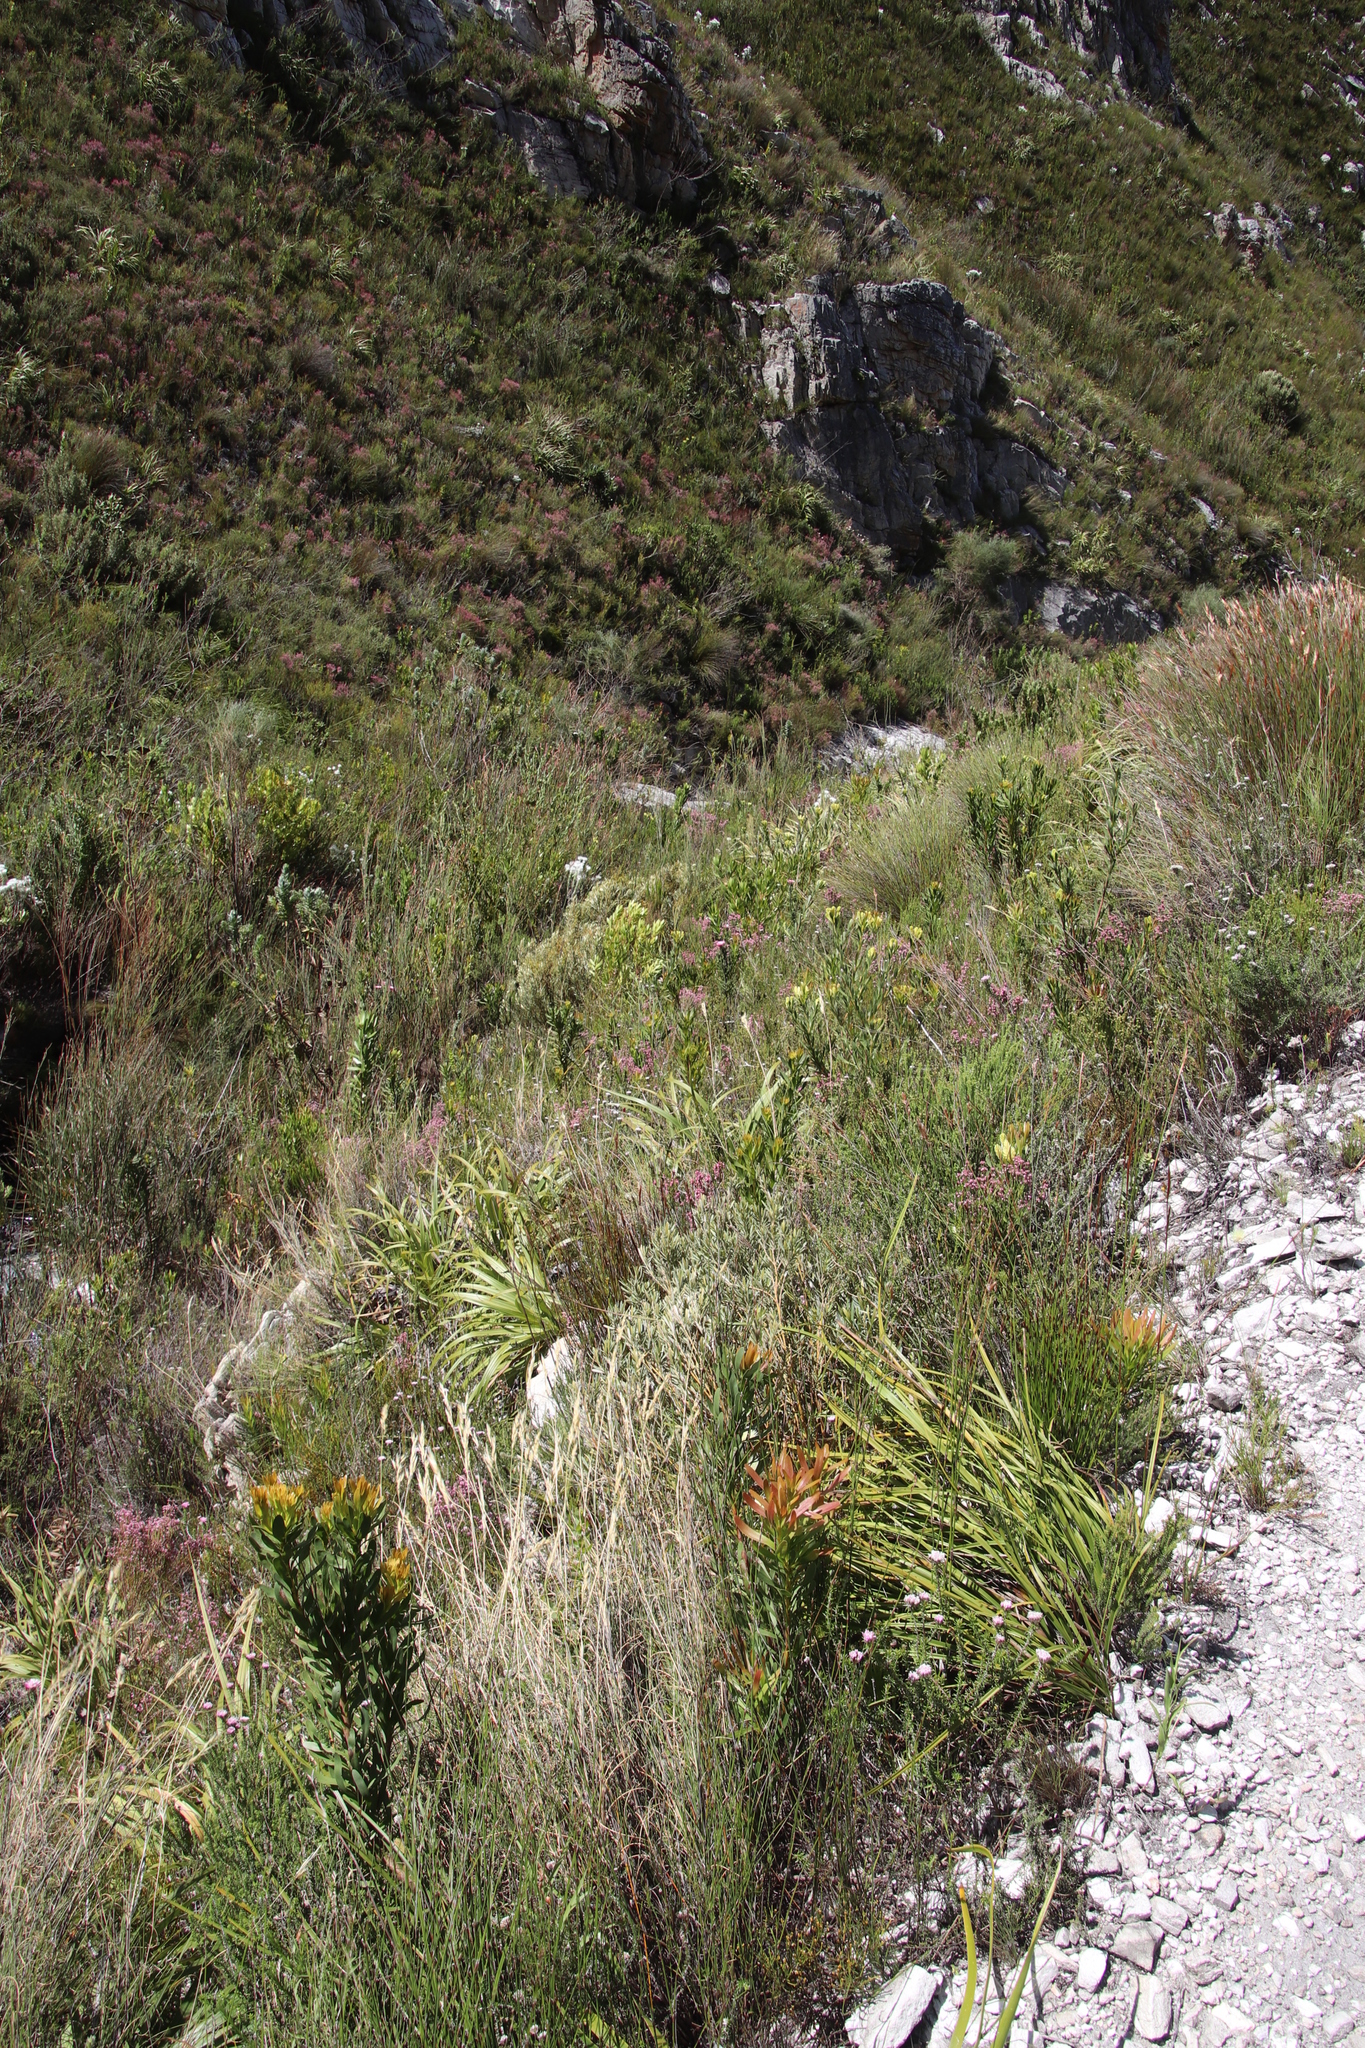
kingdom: Plantae
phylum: Tracheophyta
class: Magnoliopsida
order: Cornales
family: Grubbiaceae
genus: Grubbia
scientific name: Grubbia tomentosa
